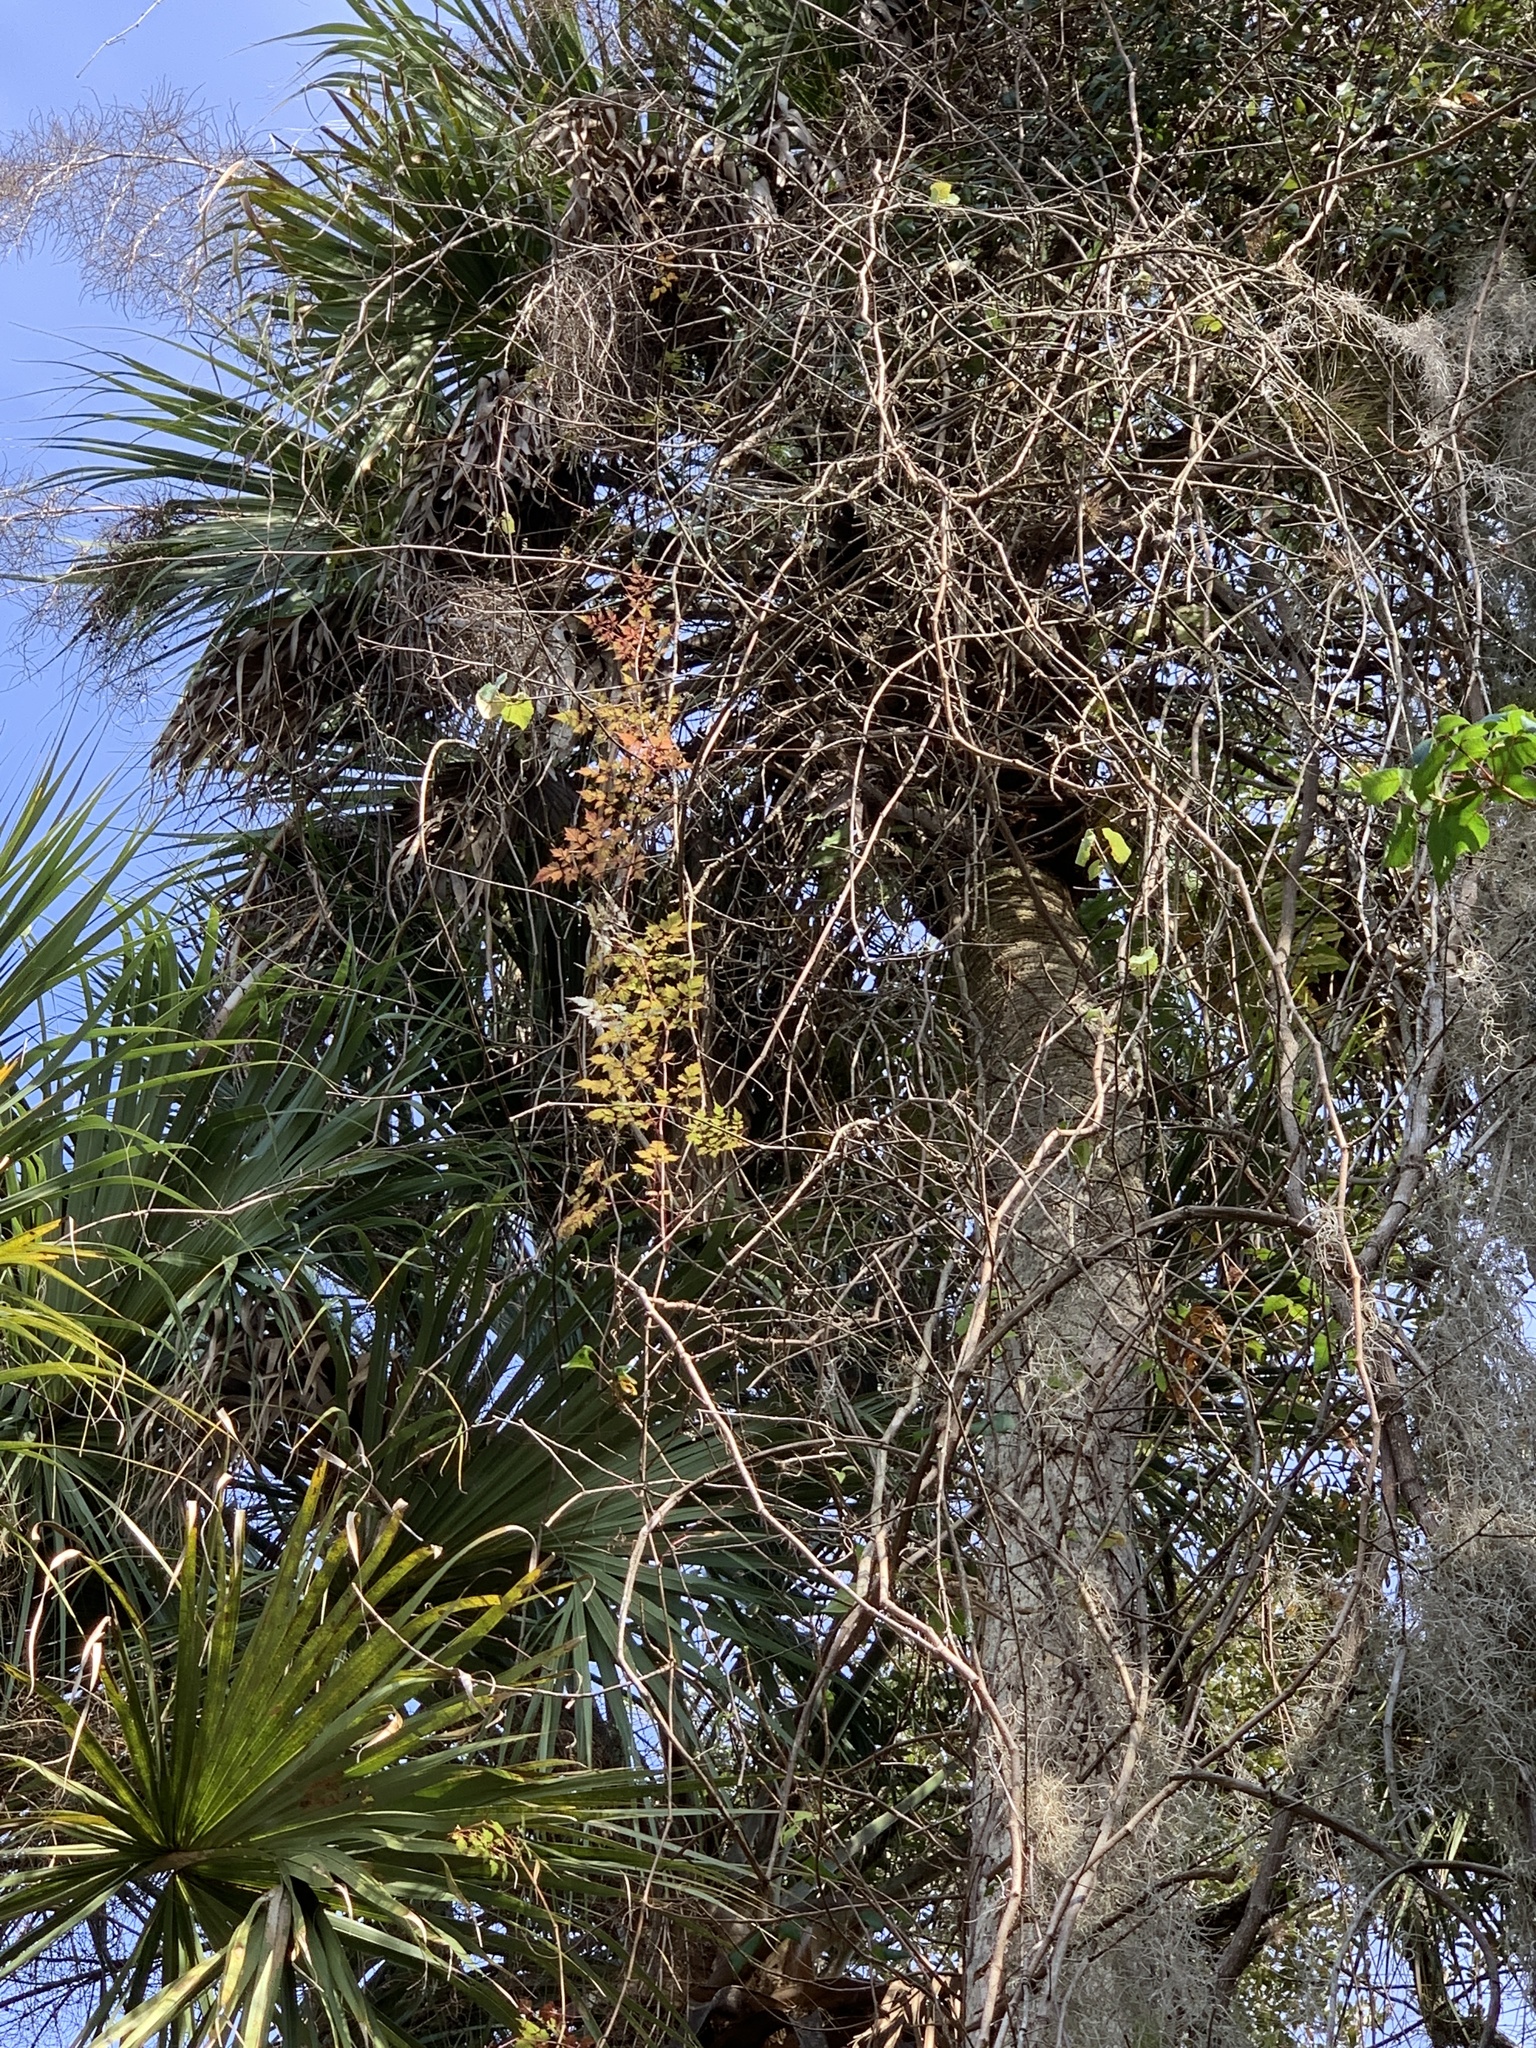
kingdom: Plantae
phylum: Tracheophyta
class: Magnoliopsida
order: Vitales
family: Vitaceae
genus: Nekemias
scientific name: Nekemias arborea
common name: Peppervine
